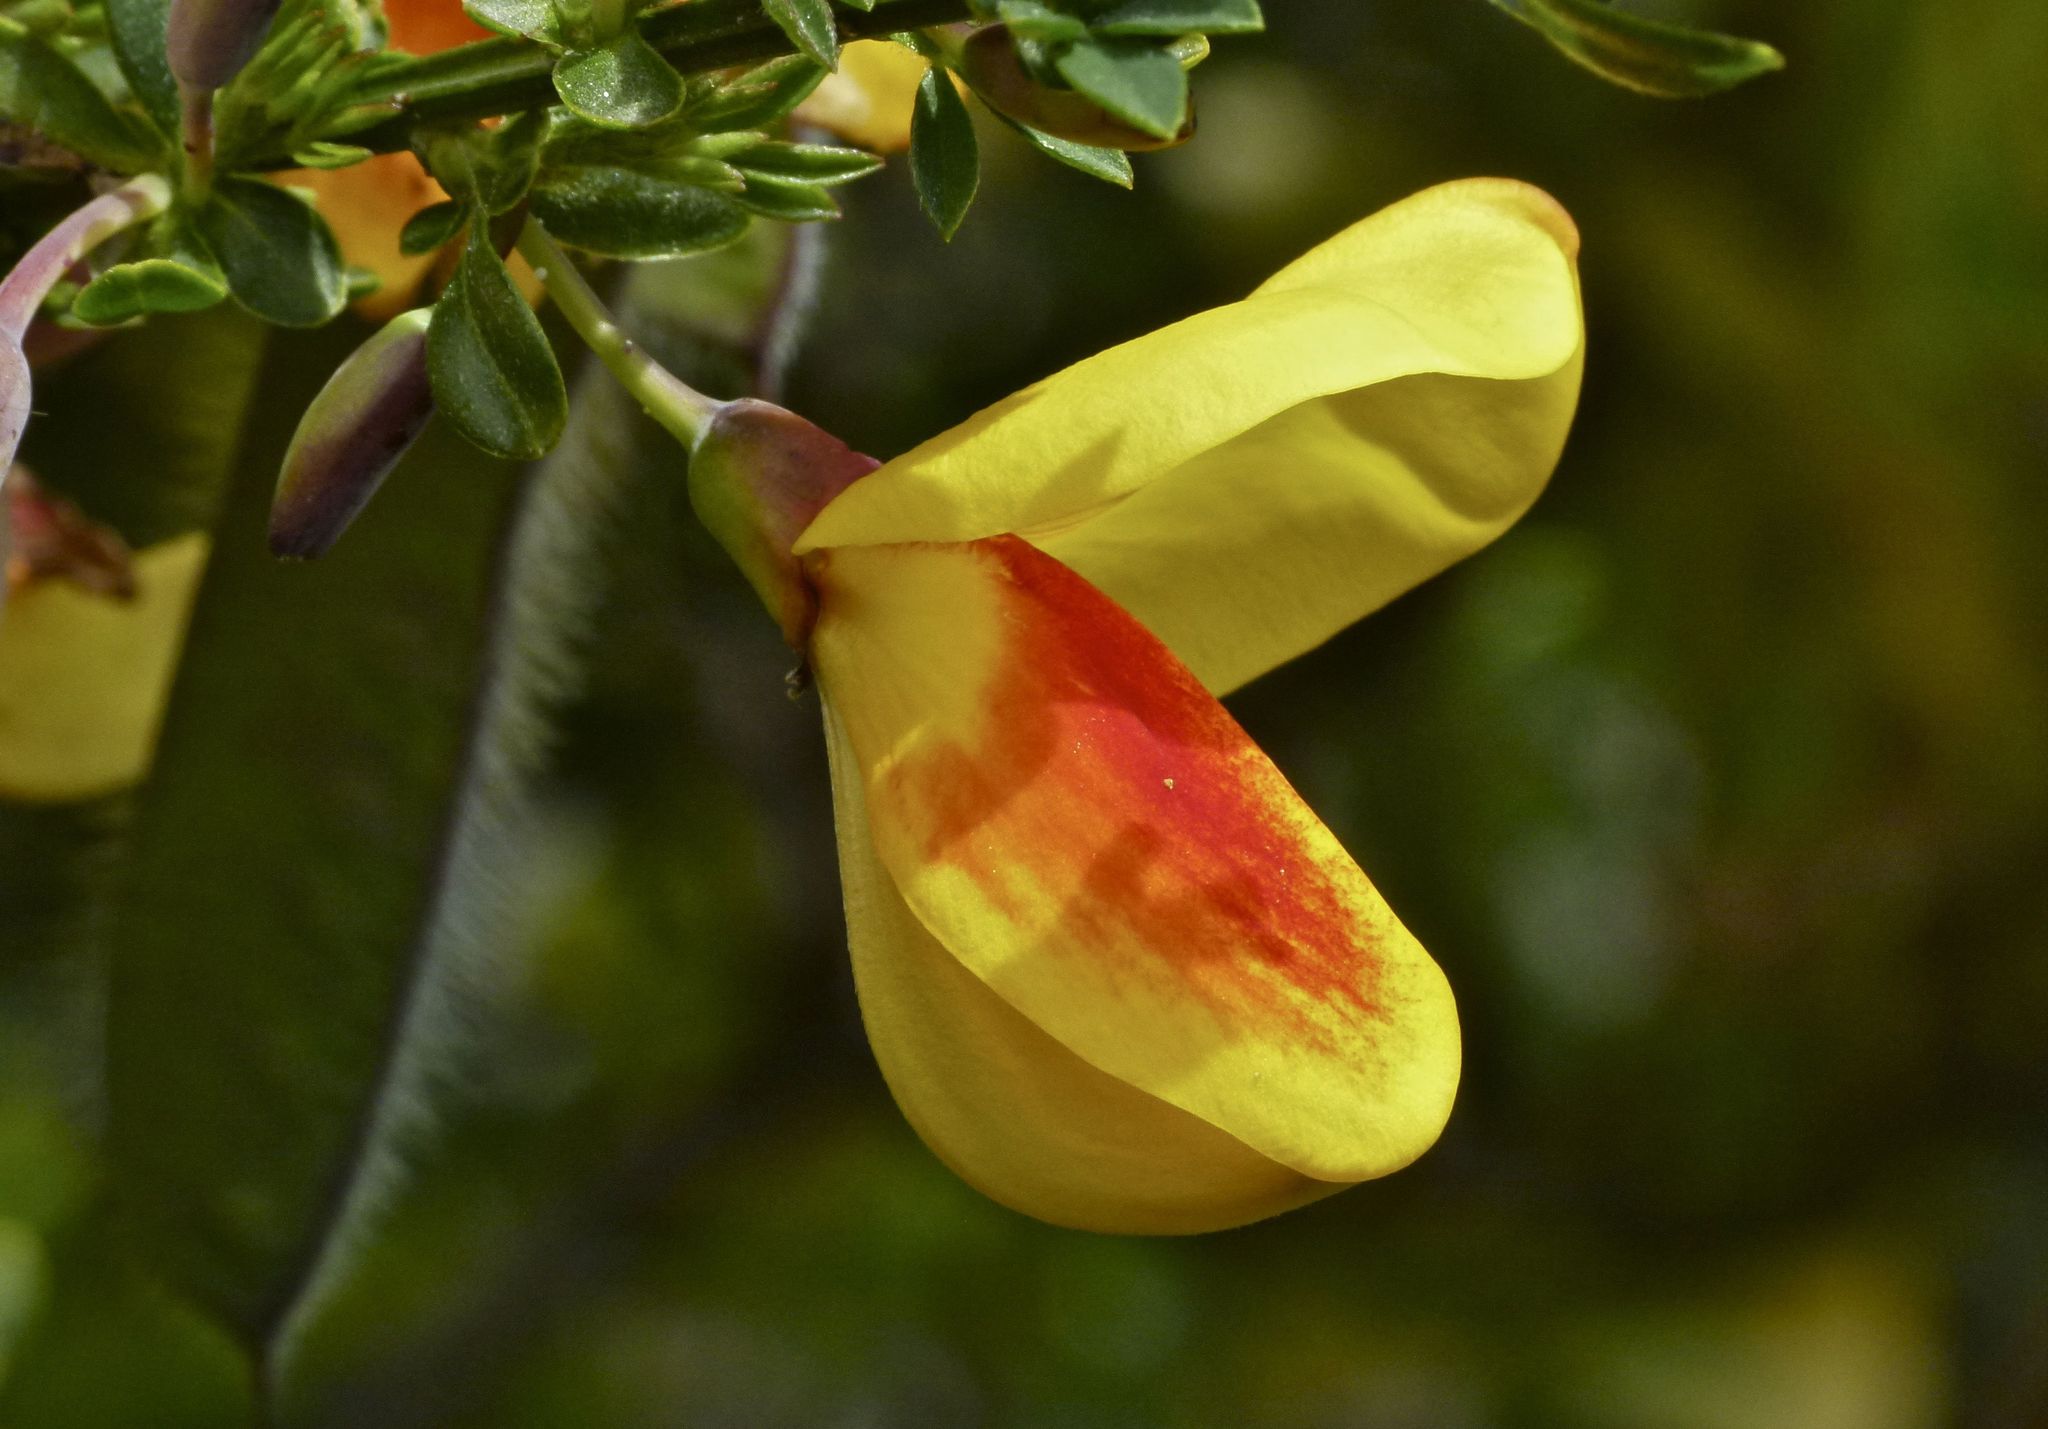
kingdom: Plantae
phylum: Tracheophyta
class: Magnoliopsida
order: Fabales
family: Fabaceae
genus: Cytisus
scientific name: Cytisus scoparius
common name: Scotch broom
